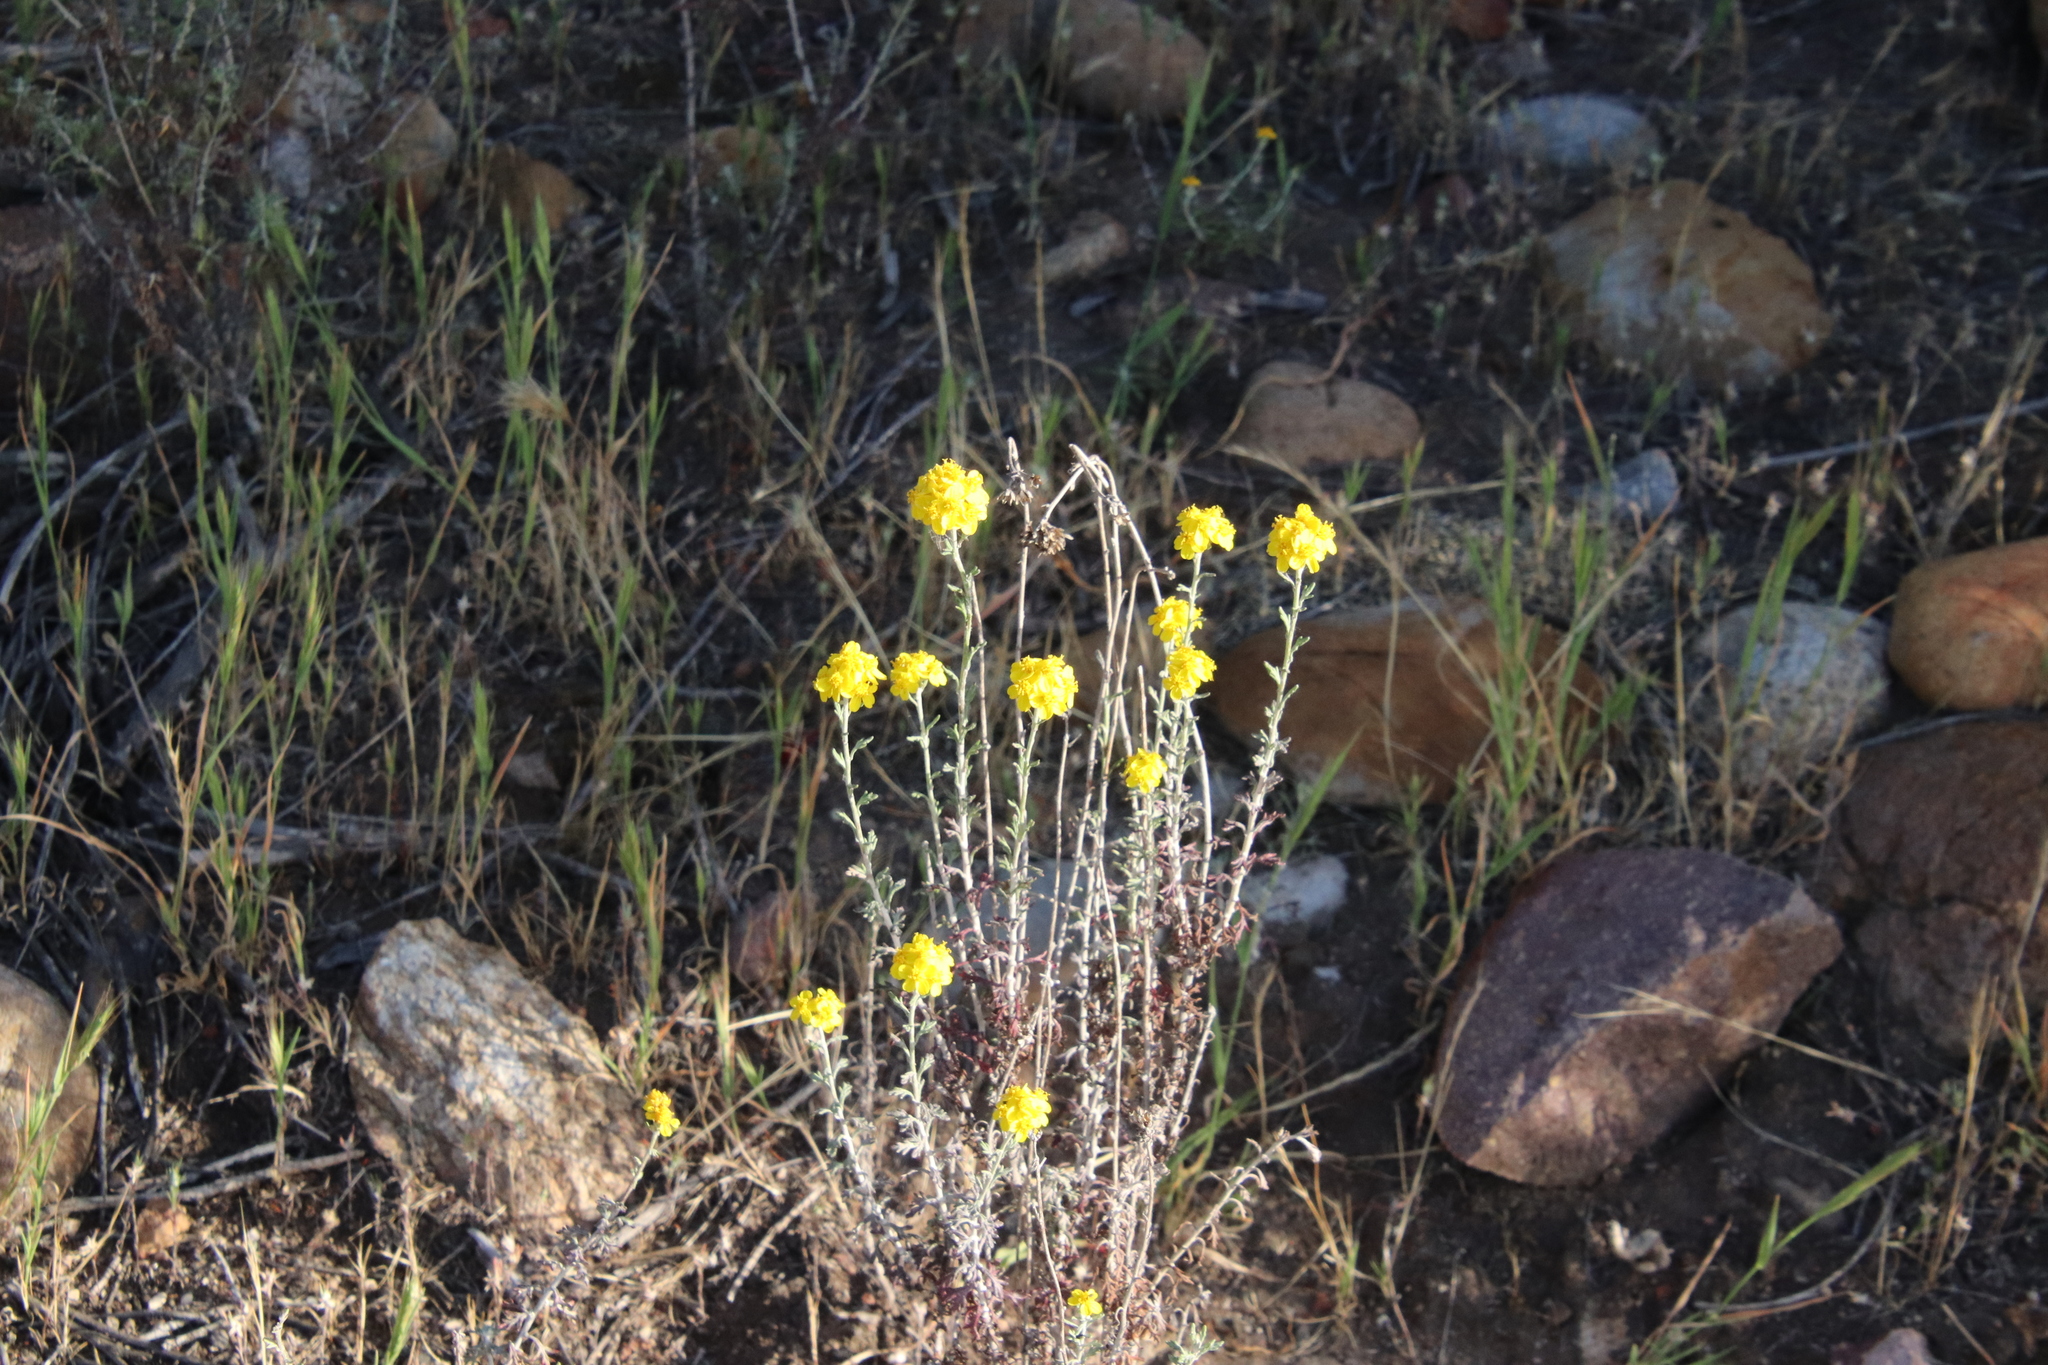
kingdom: Plantae
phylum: Tracheophyta
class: Magnoliopsida
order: Asterales
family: Asteraceae
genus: Eriophyllum
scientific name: Eriophyllum confertiflorum
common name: Golden-yarrow
